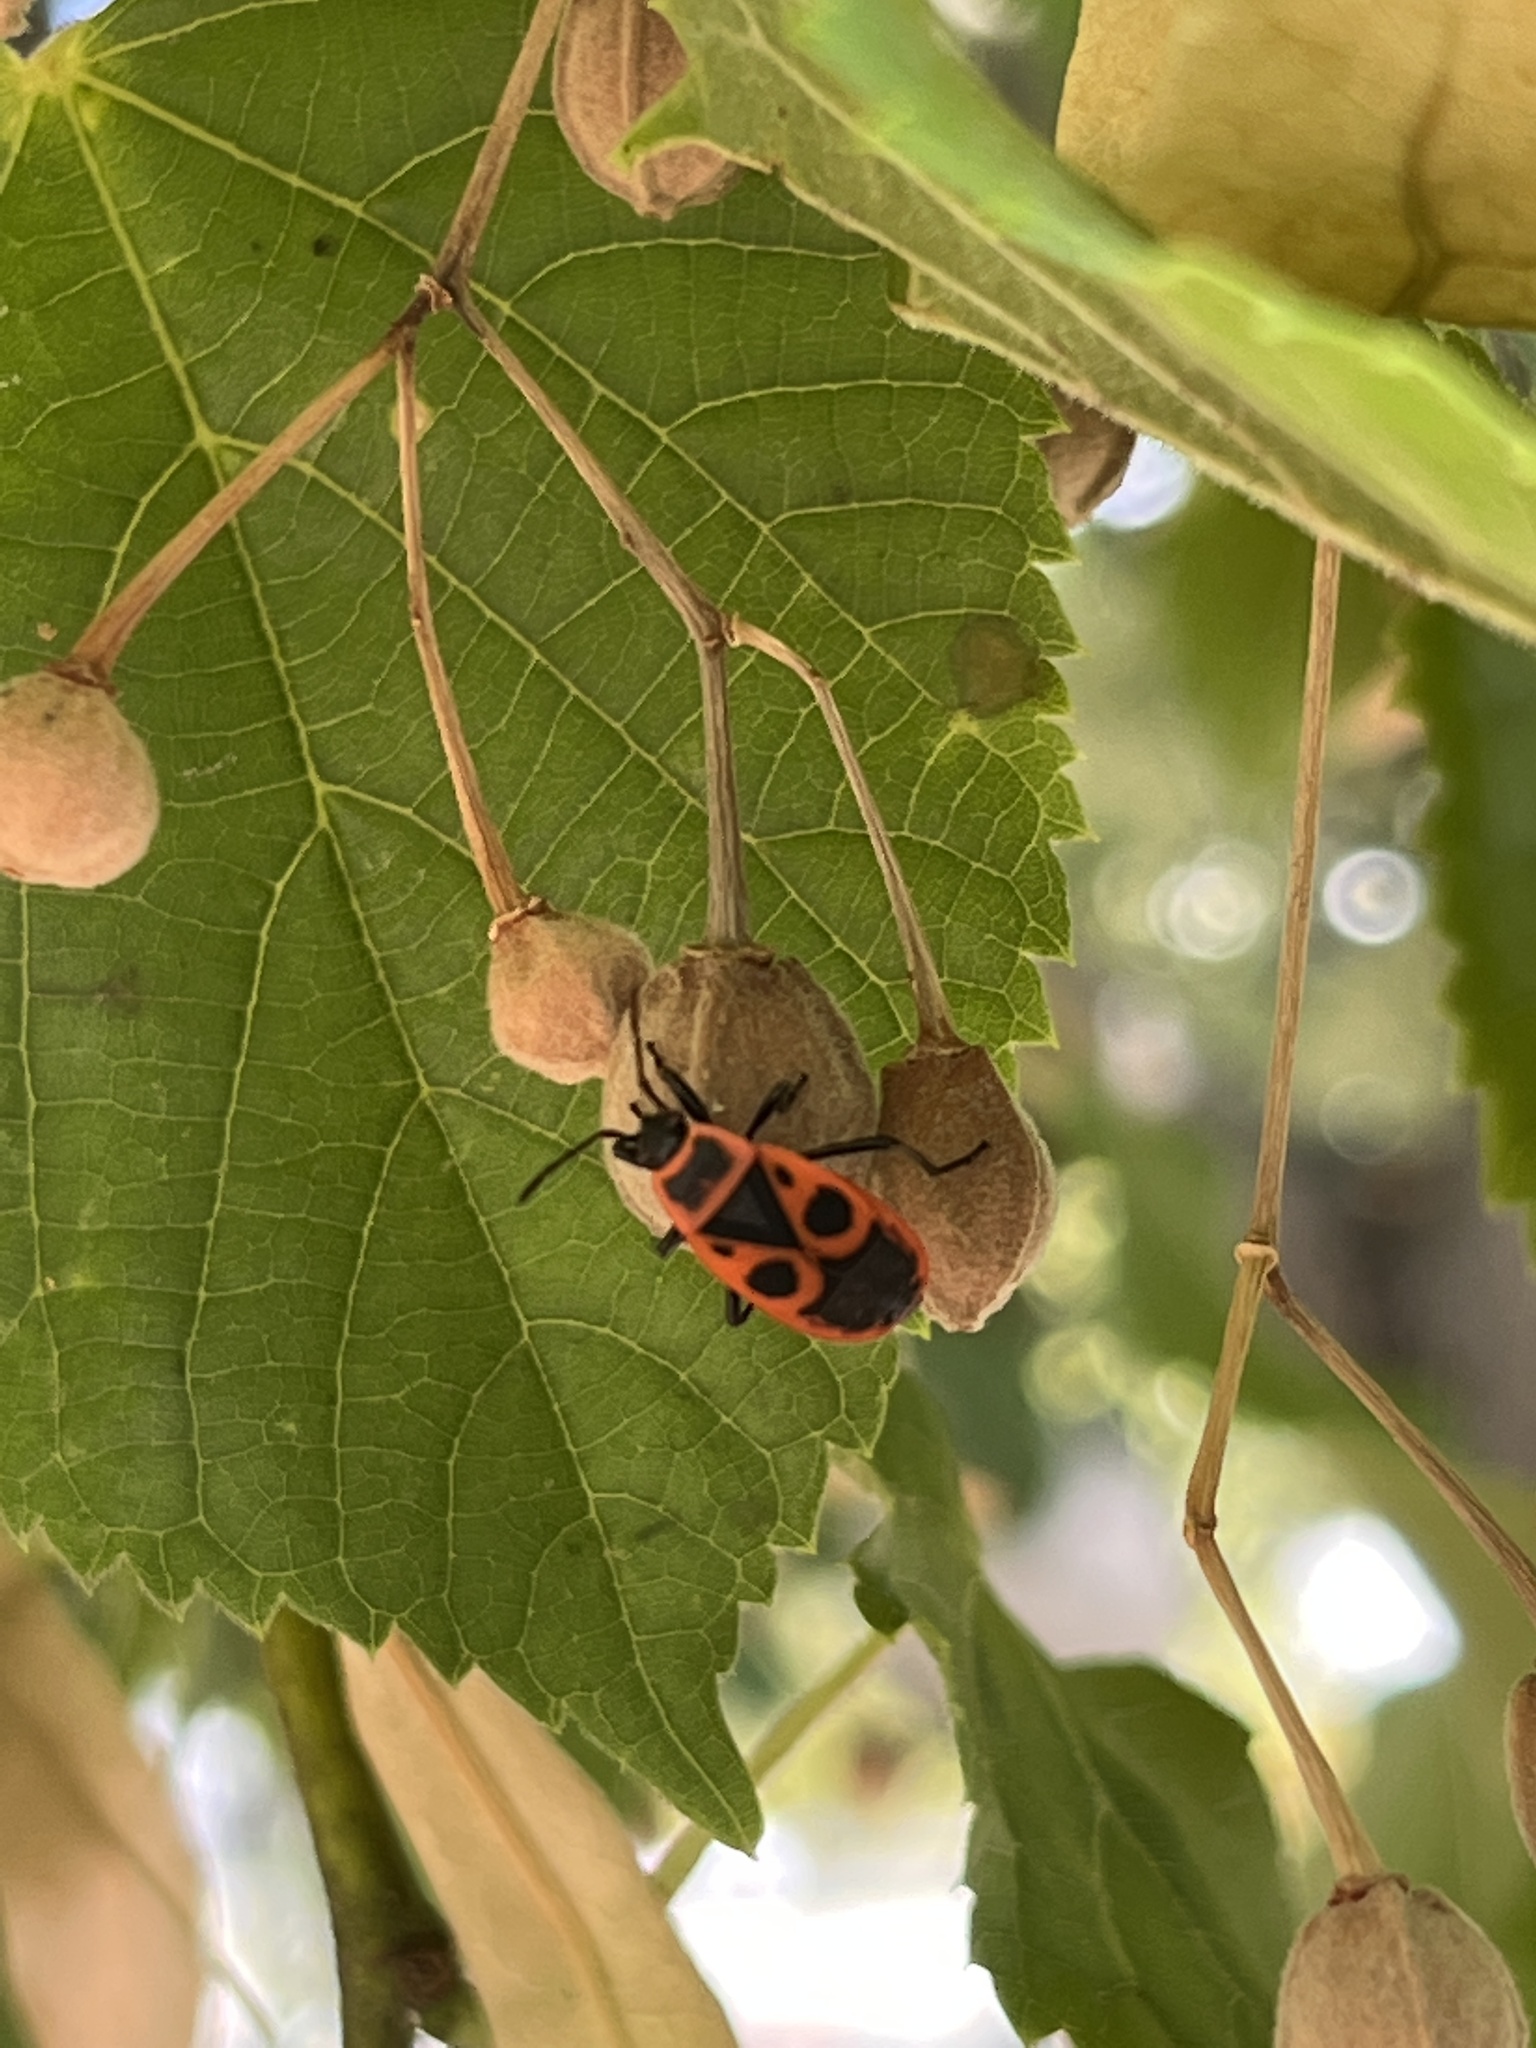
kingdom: Animalia
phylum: Arthropoda
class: Insecta
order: Hemiptera
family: Pyrrhocoridae
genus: Pyrrhocoris
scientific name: Pyrrhocoris apterus
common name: Firebug
